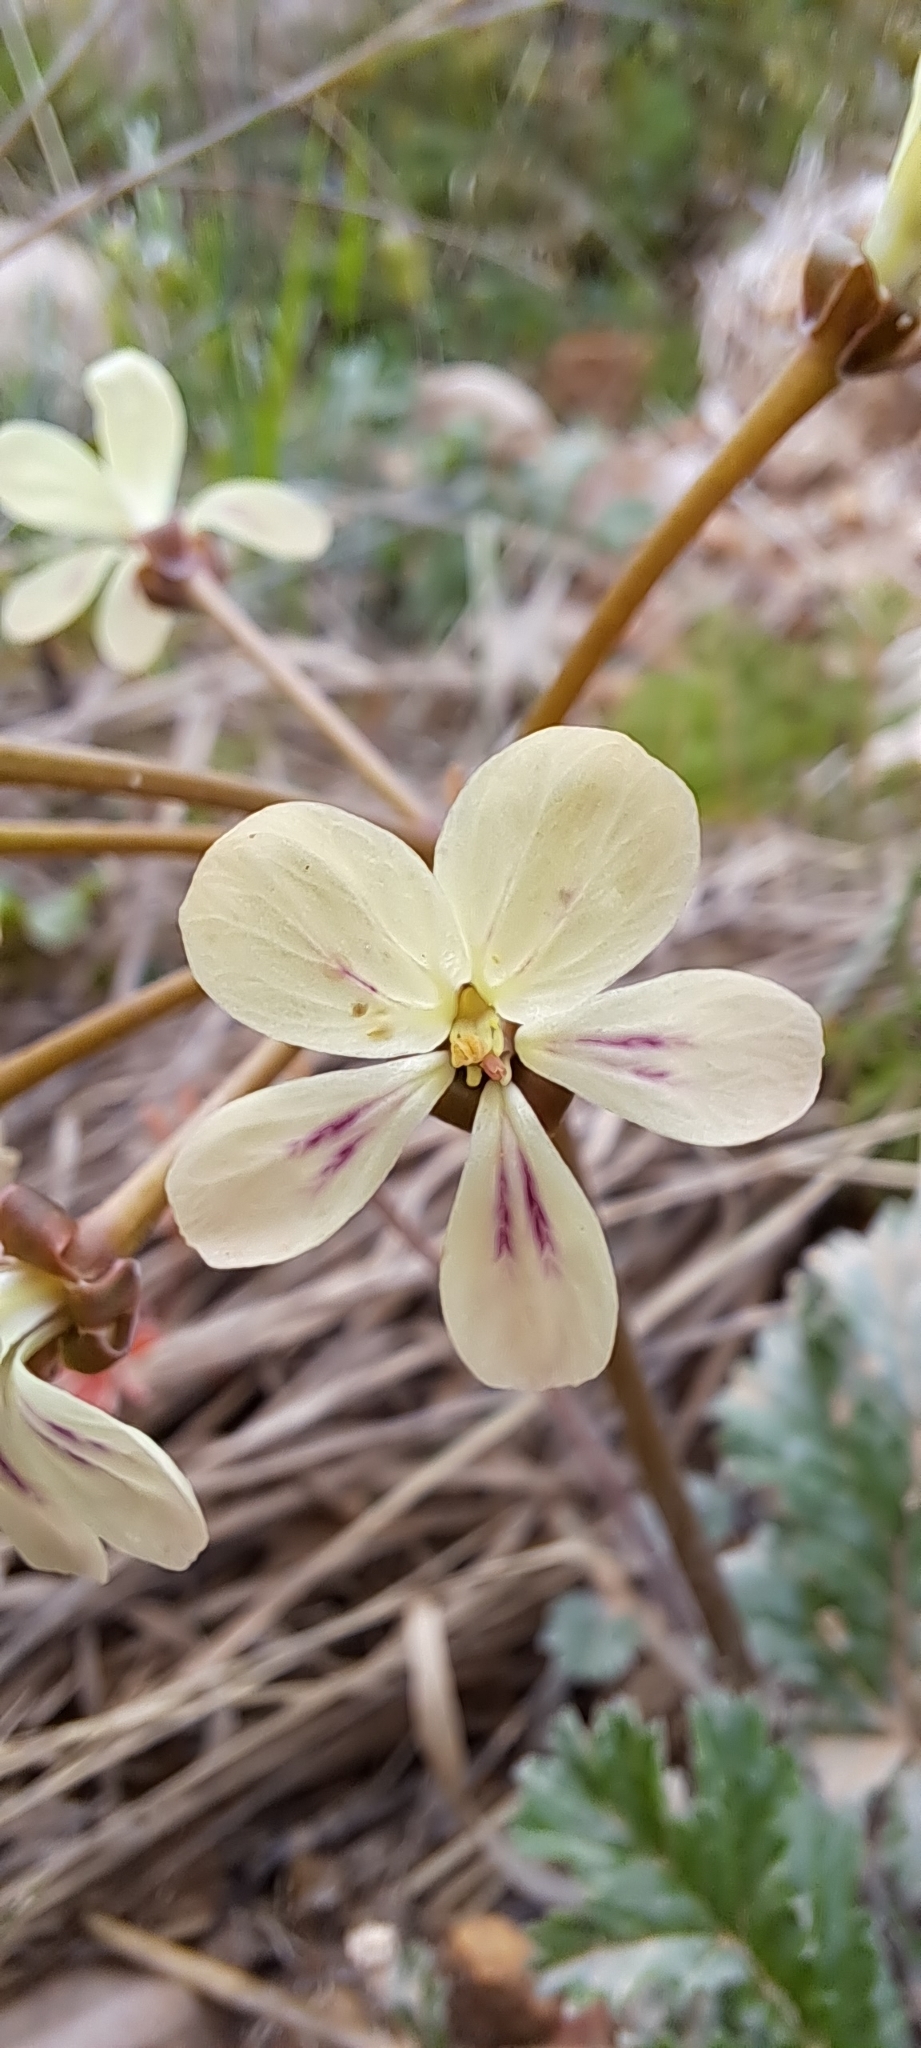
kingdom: Plantae
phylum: Tracheophyta
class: Magnoliopsida
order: Geraniales
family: Geraniaceae
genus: Pelargonium
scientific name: Pelargonium triste
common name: Night-scent pelargonium
